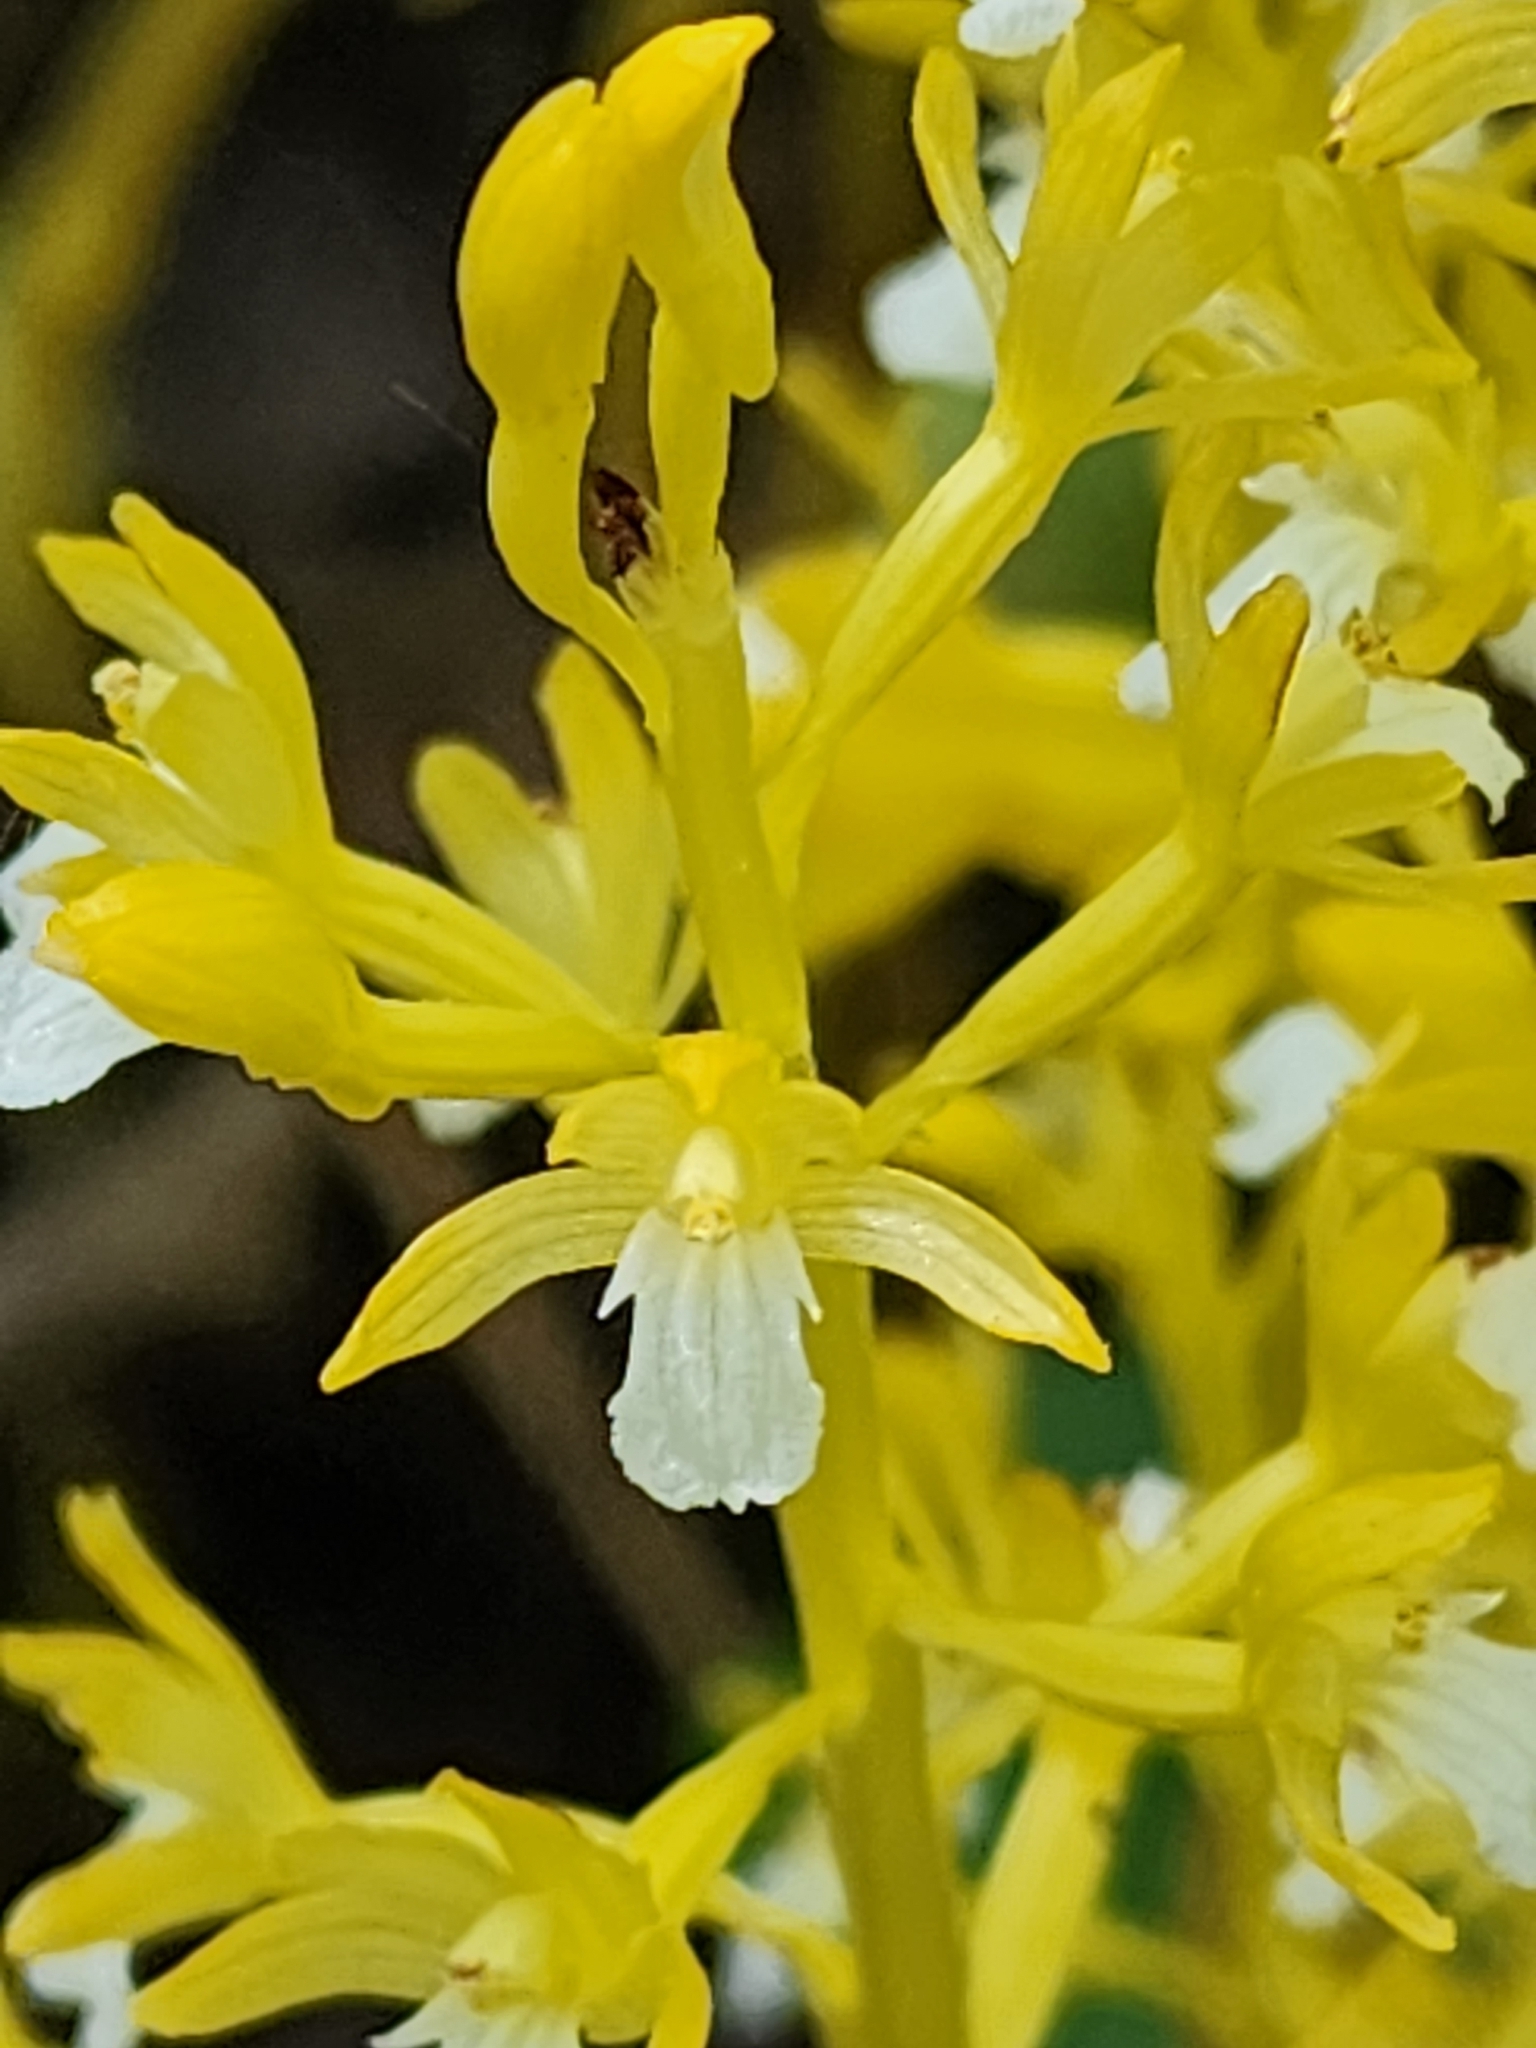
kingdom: Plantae
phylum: Tracheophyta
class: Liliopsida
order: Asparagales
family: Orchidaceae
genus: Corallorhiza
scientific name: Corallorhiza maculata
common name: Spotted coralroot
